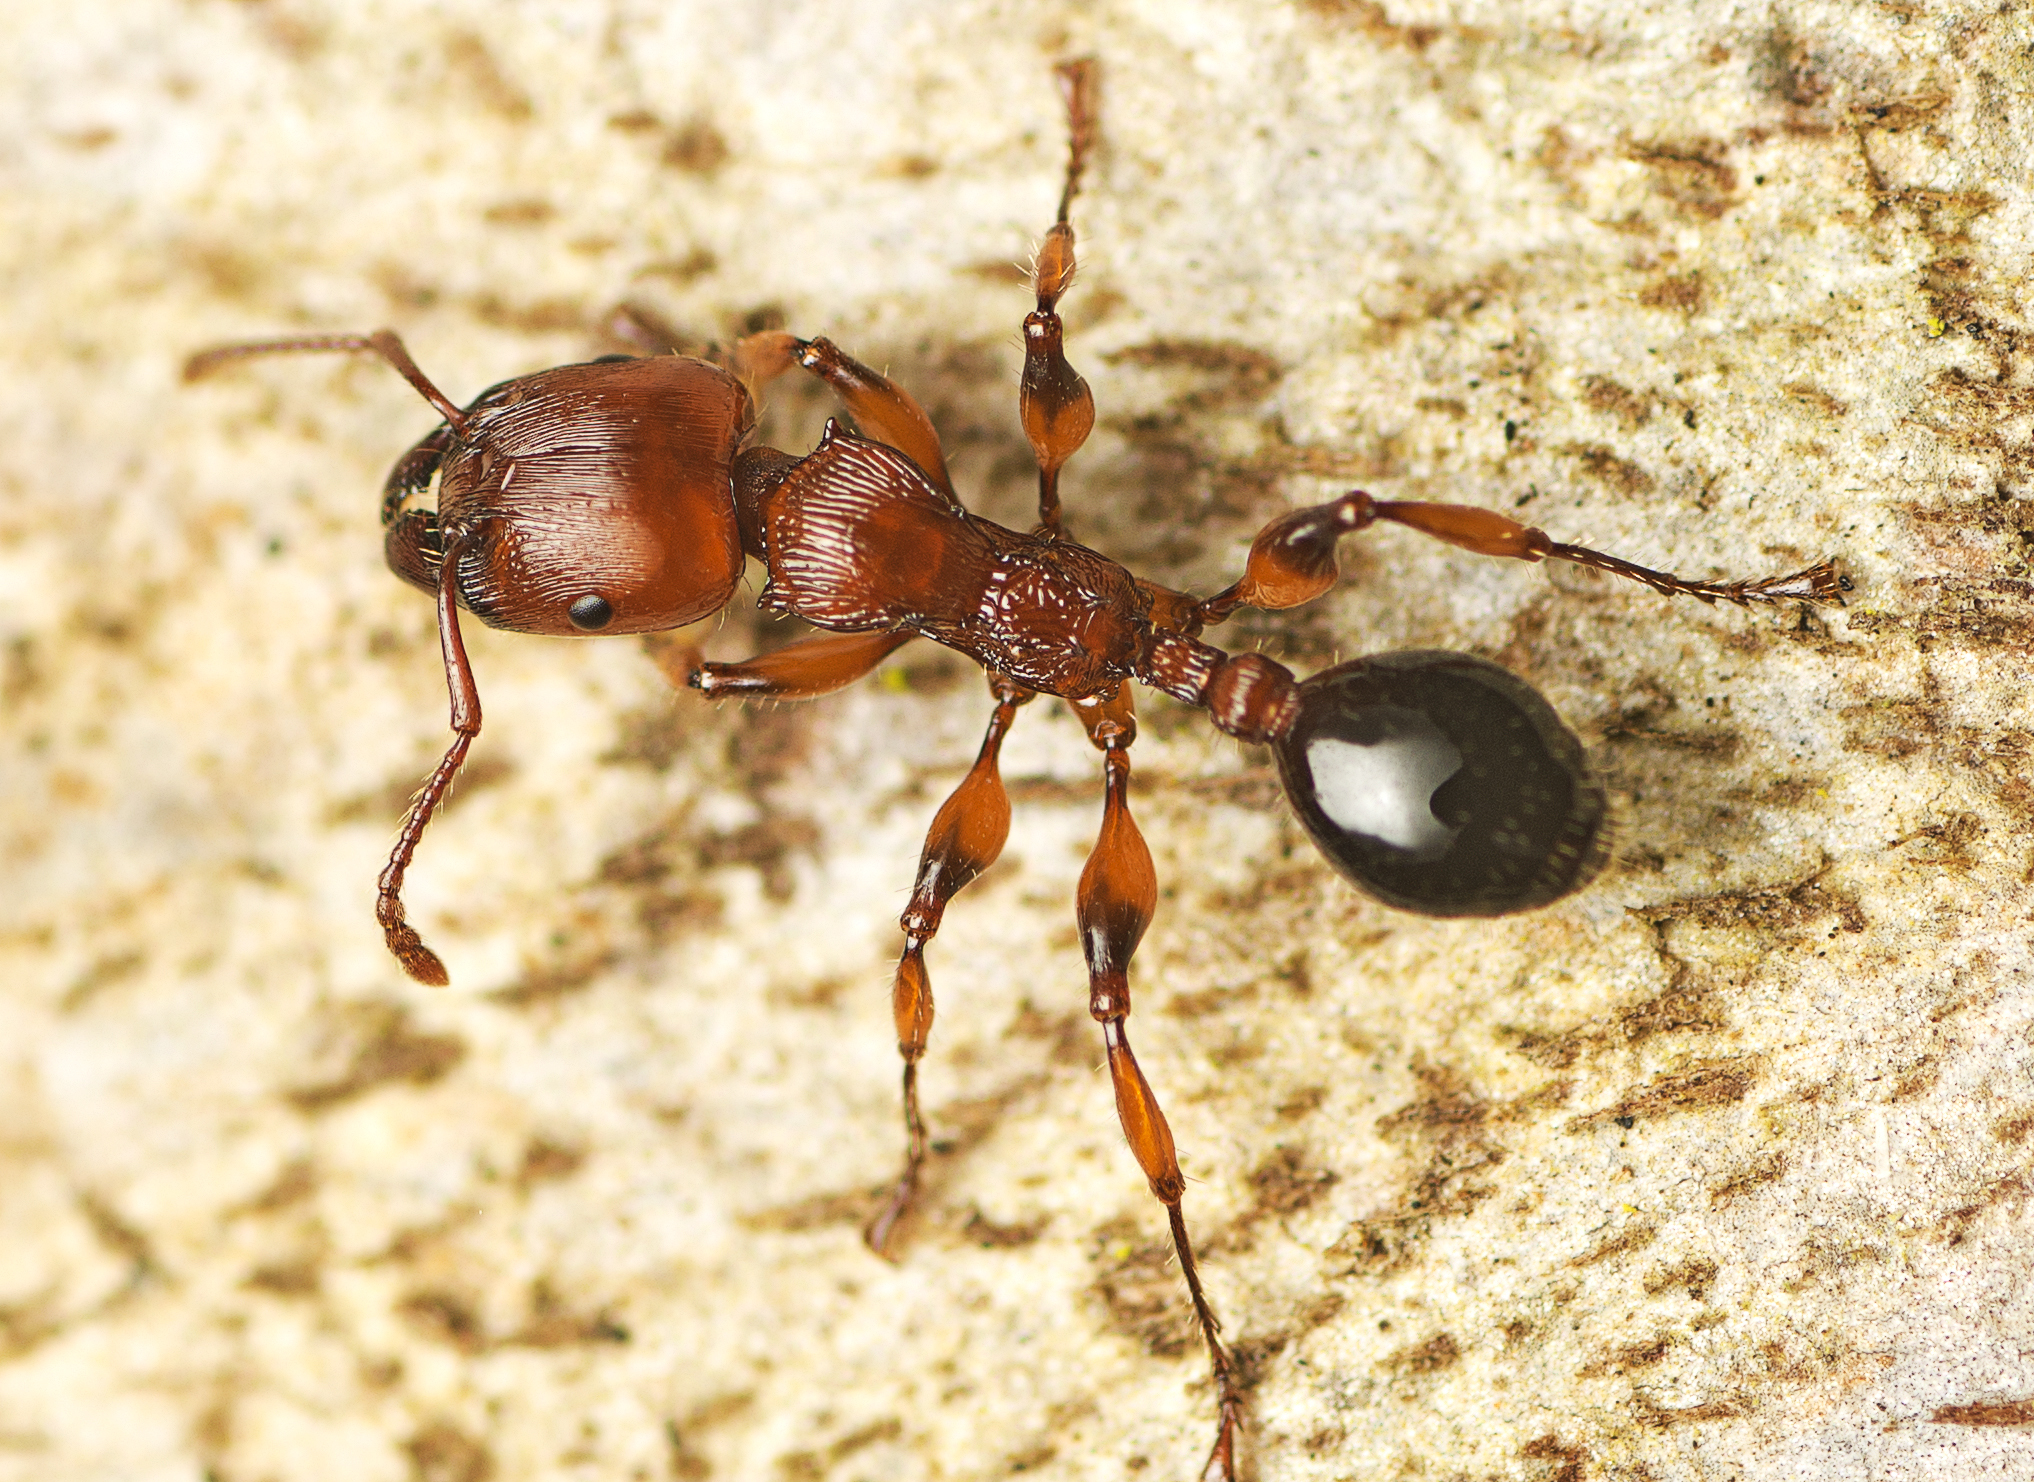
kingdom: Animalia
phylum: Arthropoda
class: Insecta
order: Hymenoptera
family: Formicidae
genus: Podomyrma
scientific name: Podomyrma gratiosa
